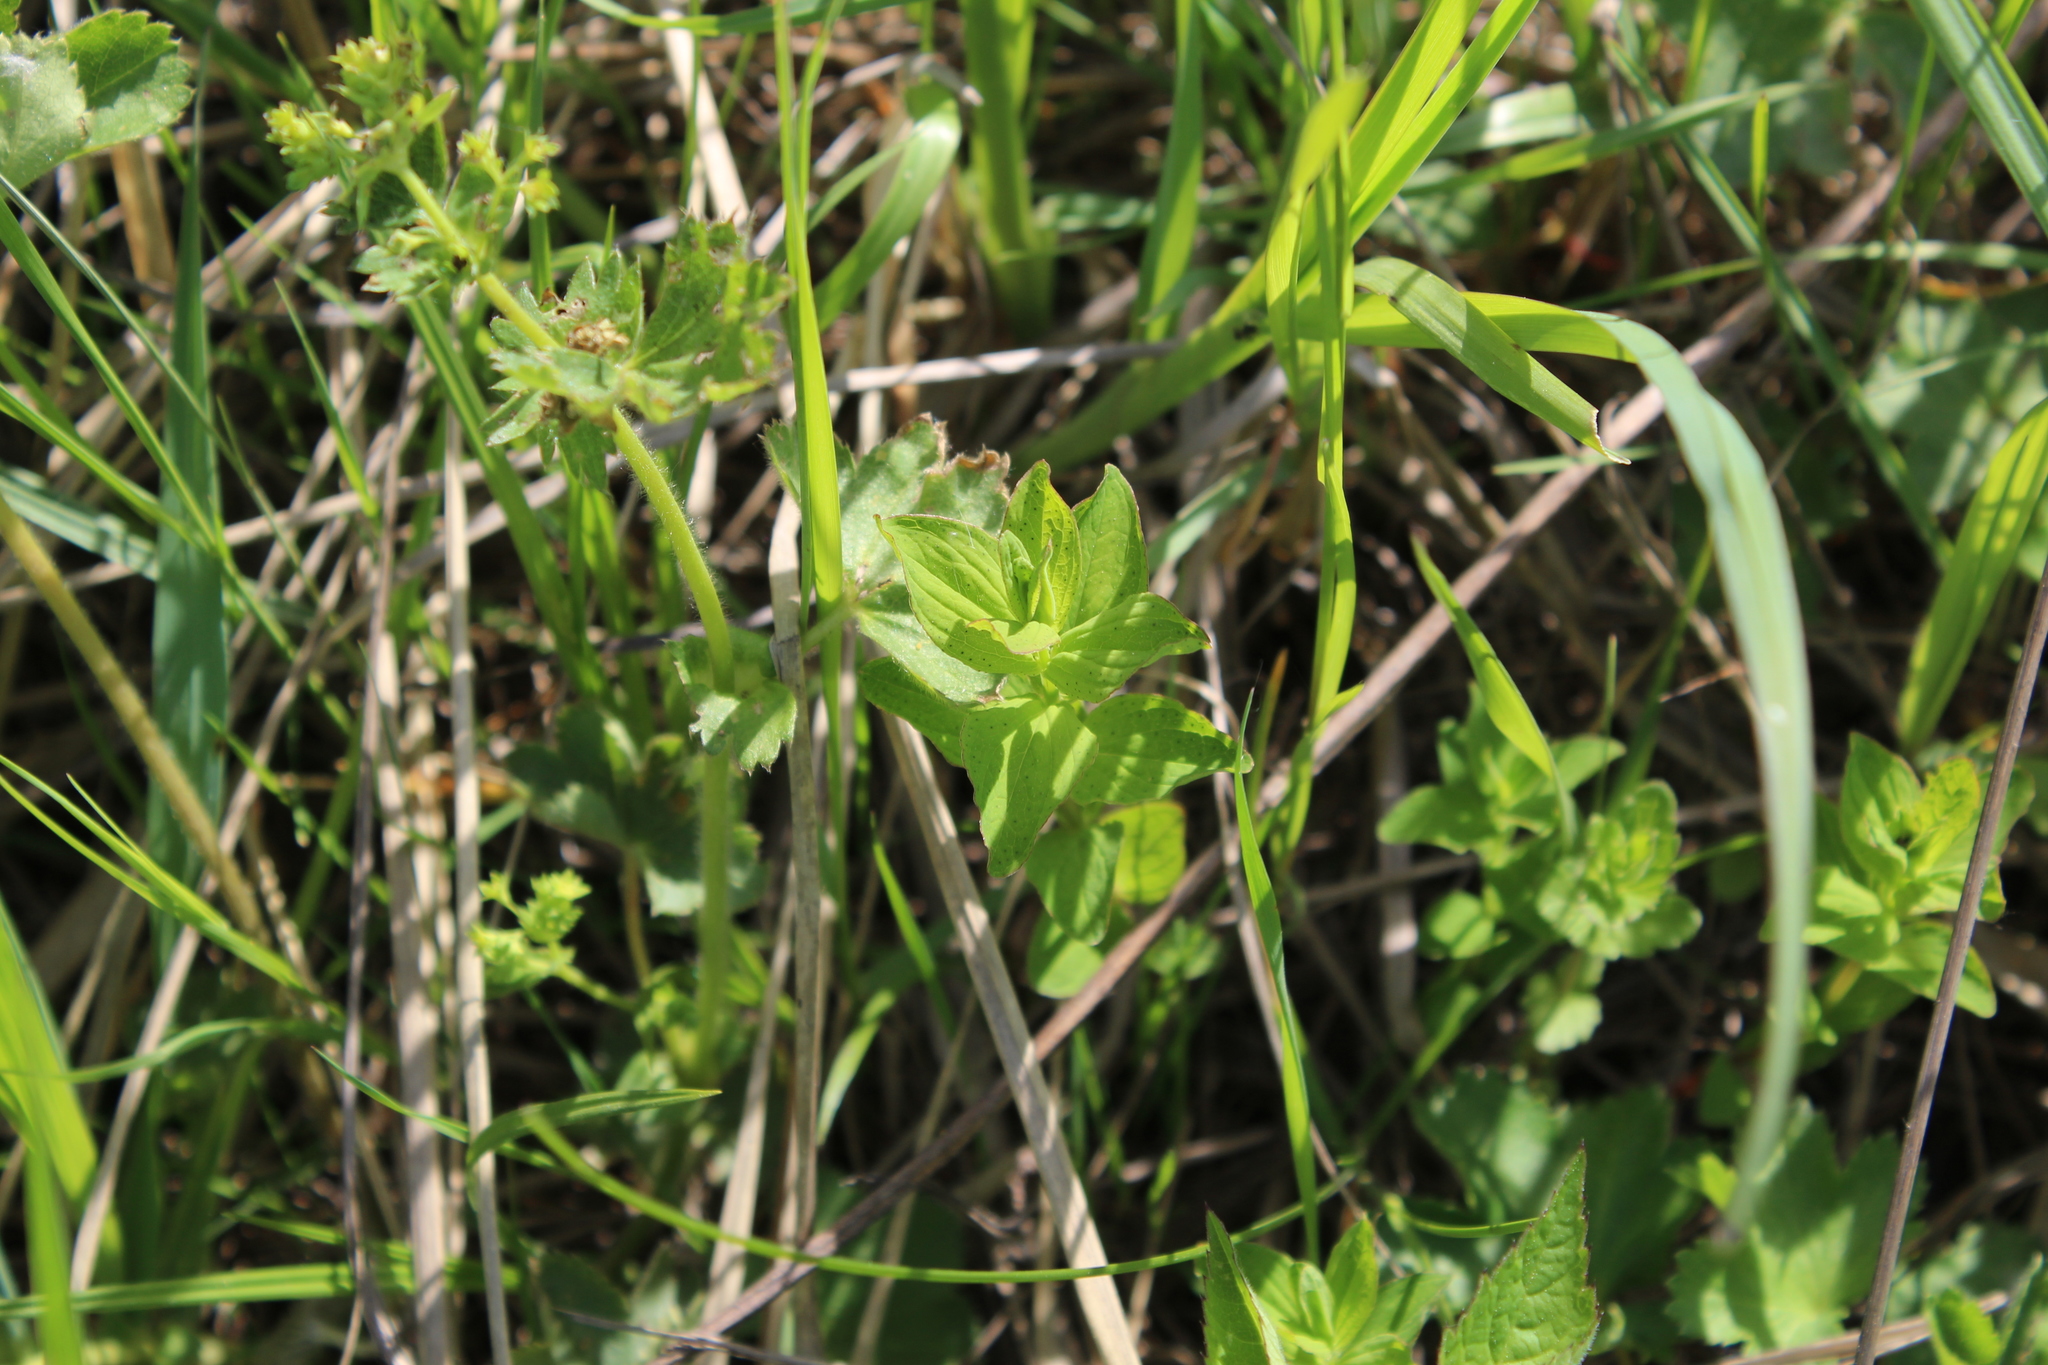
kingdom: Plantae
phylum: Tracheophyta
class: Magnoliopsida
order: Malpighiales
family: Hypericaceae
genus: Hypericum
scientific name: Hypericum maculatum
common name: Imperforate st. john's-wort
